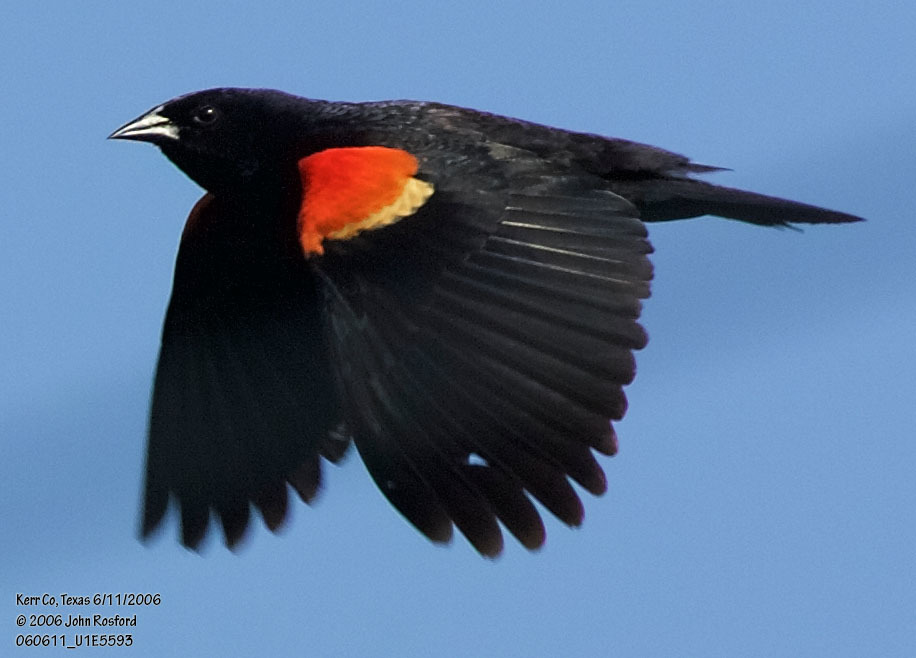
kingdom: Animalia
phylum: Chordata
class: Aves
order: Passeriformes
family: Icteridae
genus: Agelaius
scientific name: Agelaius phoeniceus
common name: Red-winged blackbird
